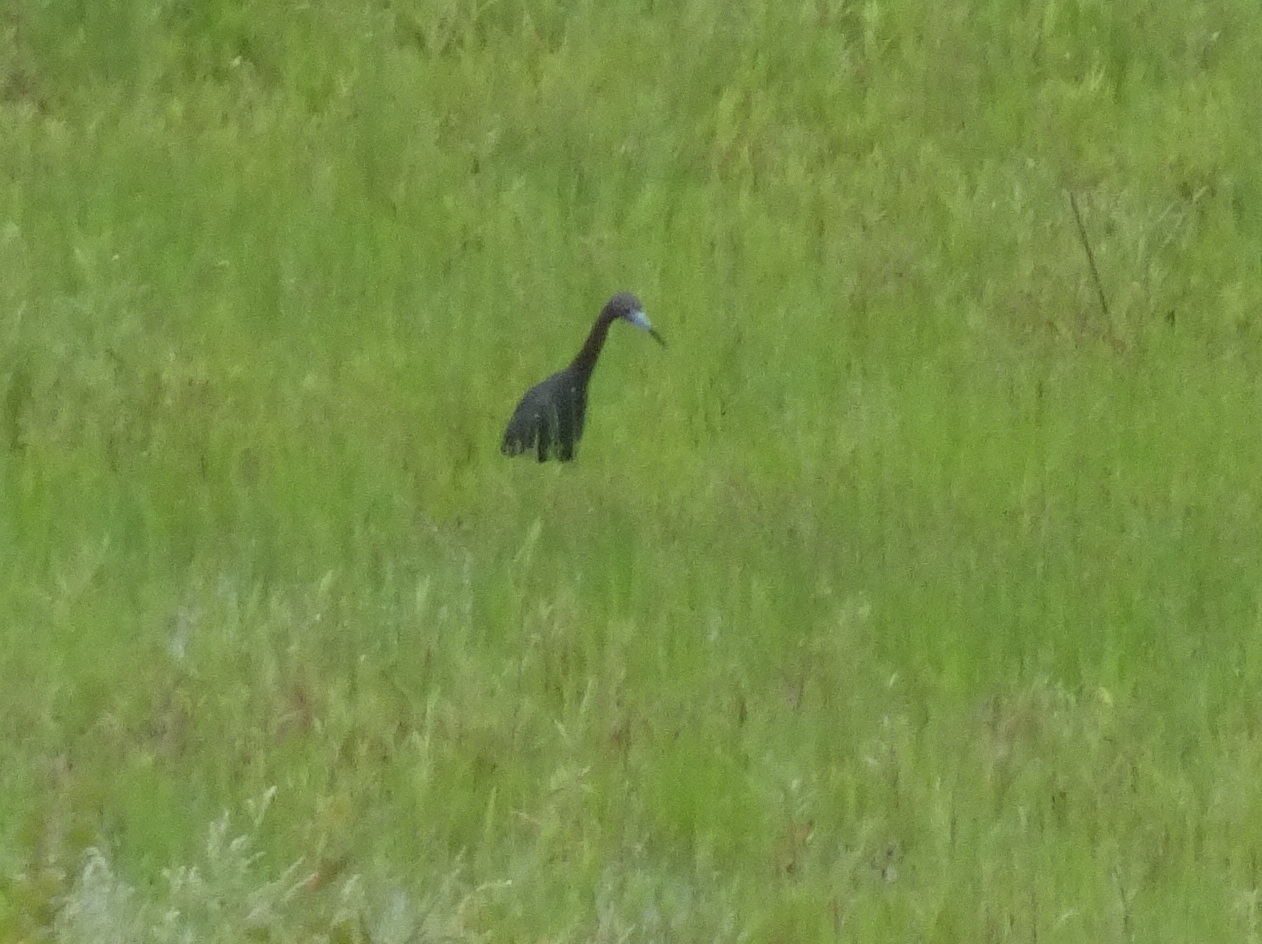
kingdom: Animalia
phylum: Chordata
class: Aves
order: Pelecaniformes
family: Ardeidae
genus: Egretta
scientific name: Egretta caerulea
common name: Little blue heron
